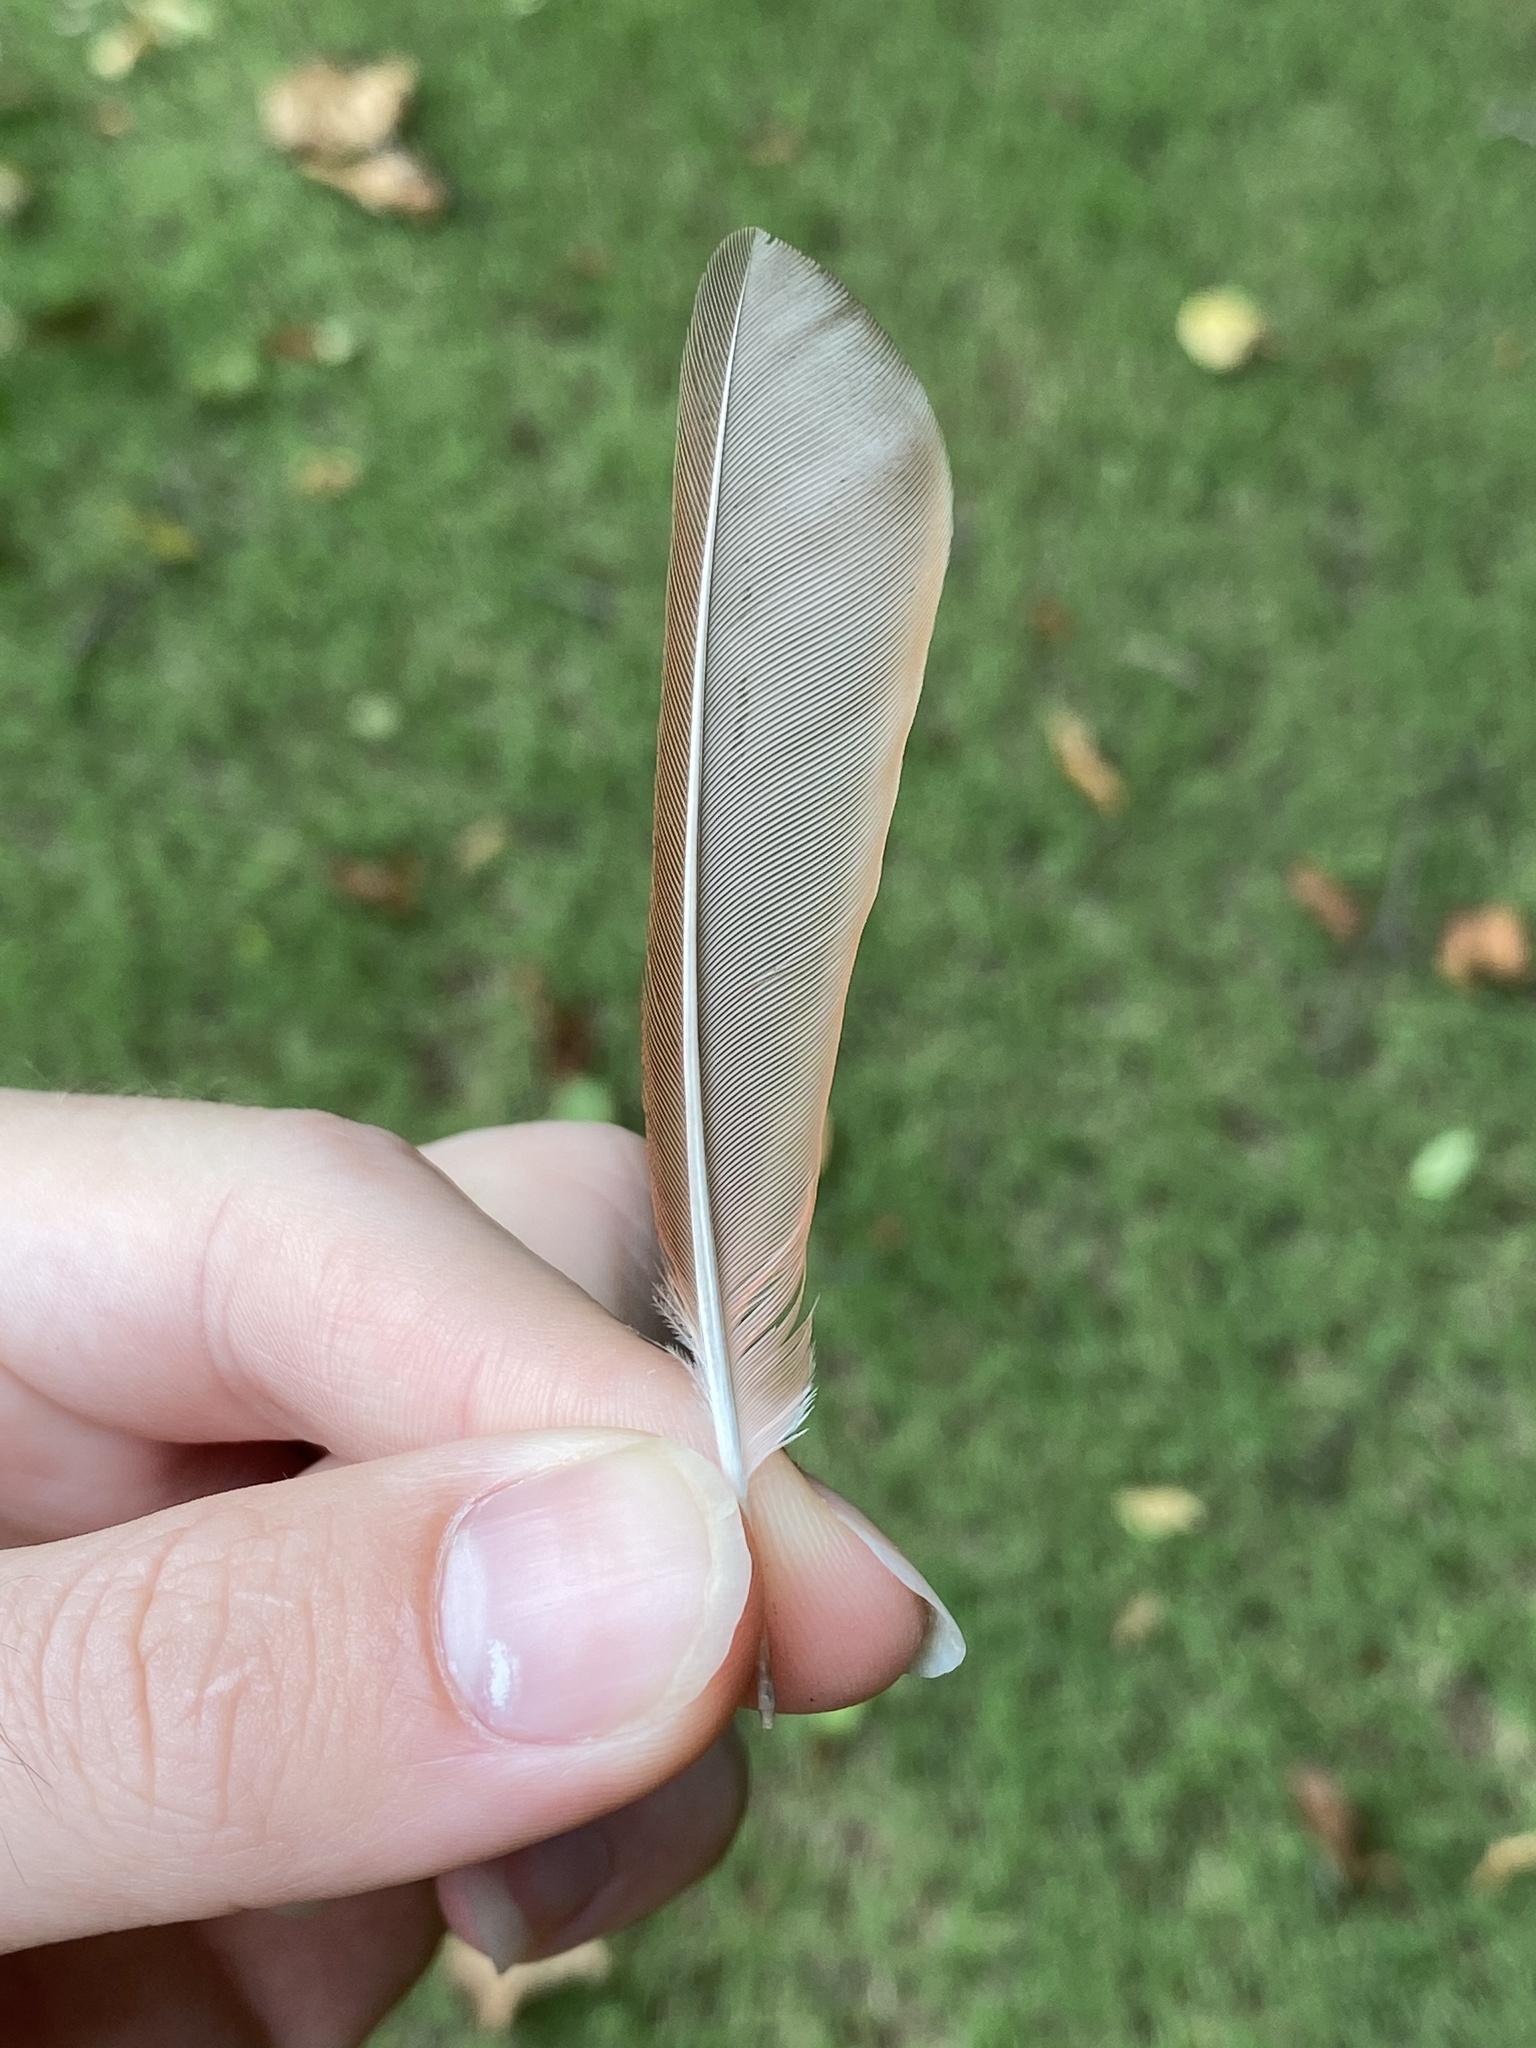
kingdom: Animalia
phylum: Chordata
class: Aves
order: Passeriformes
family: Cardinalidae
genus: Cardinalis
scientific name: Cardinalis cardinalis
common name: Northern cardinal
